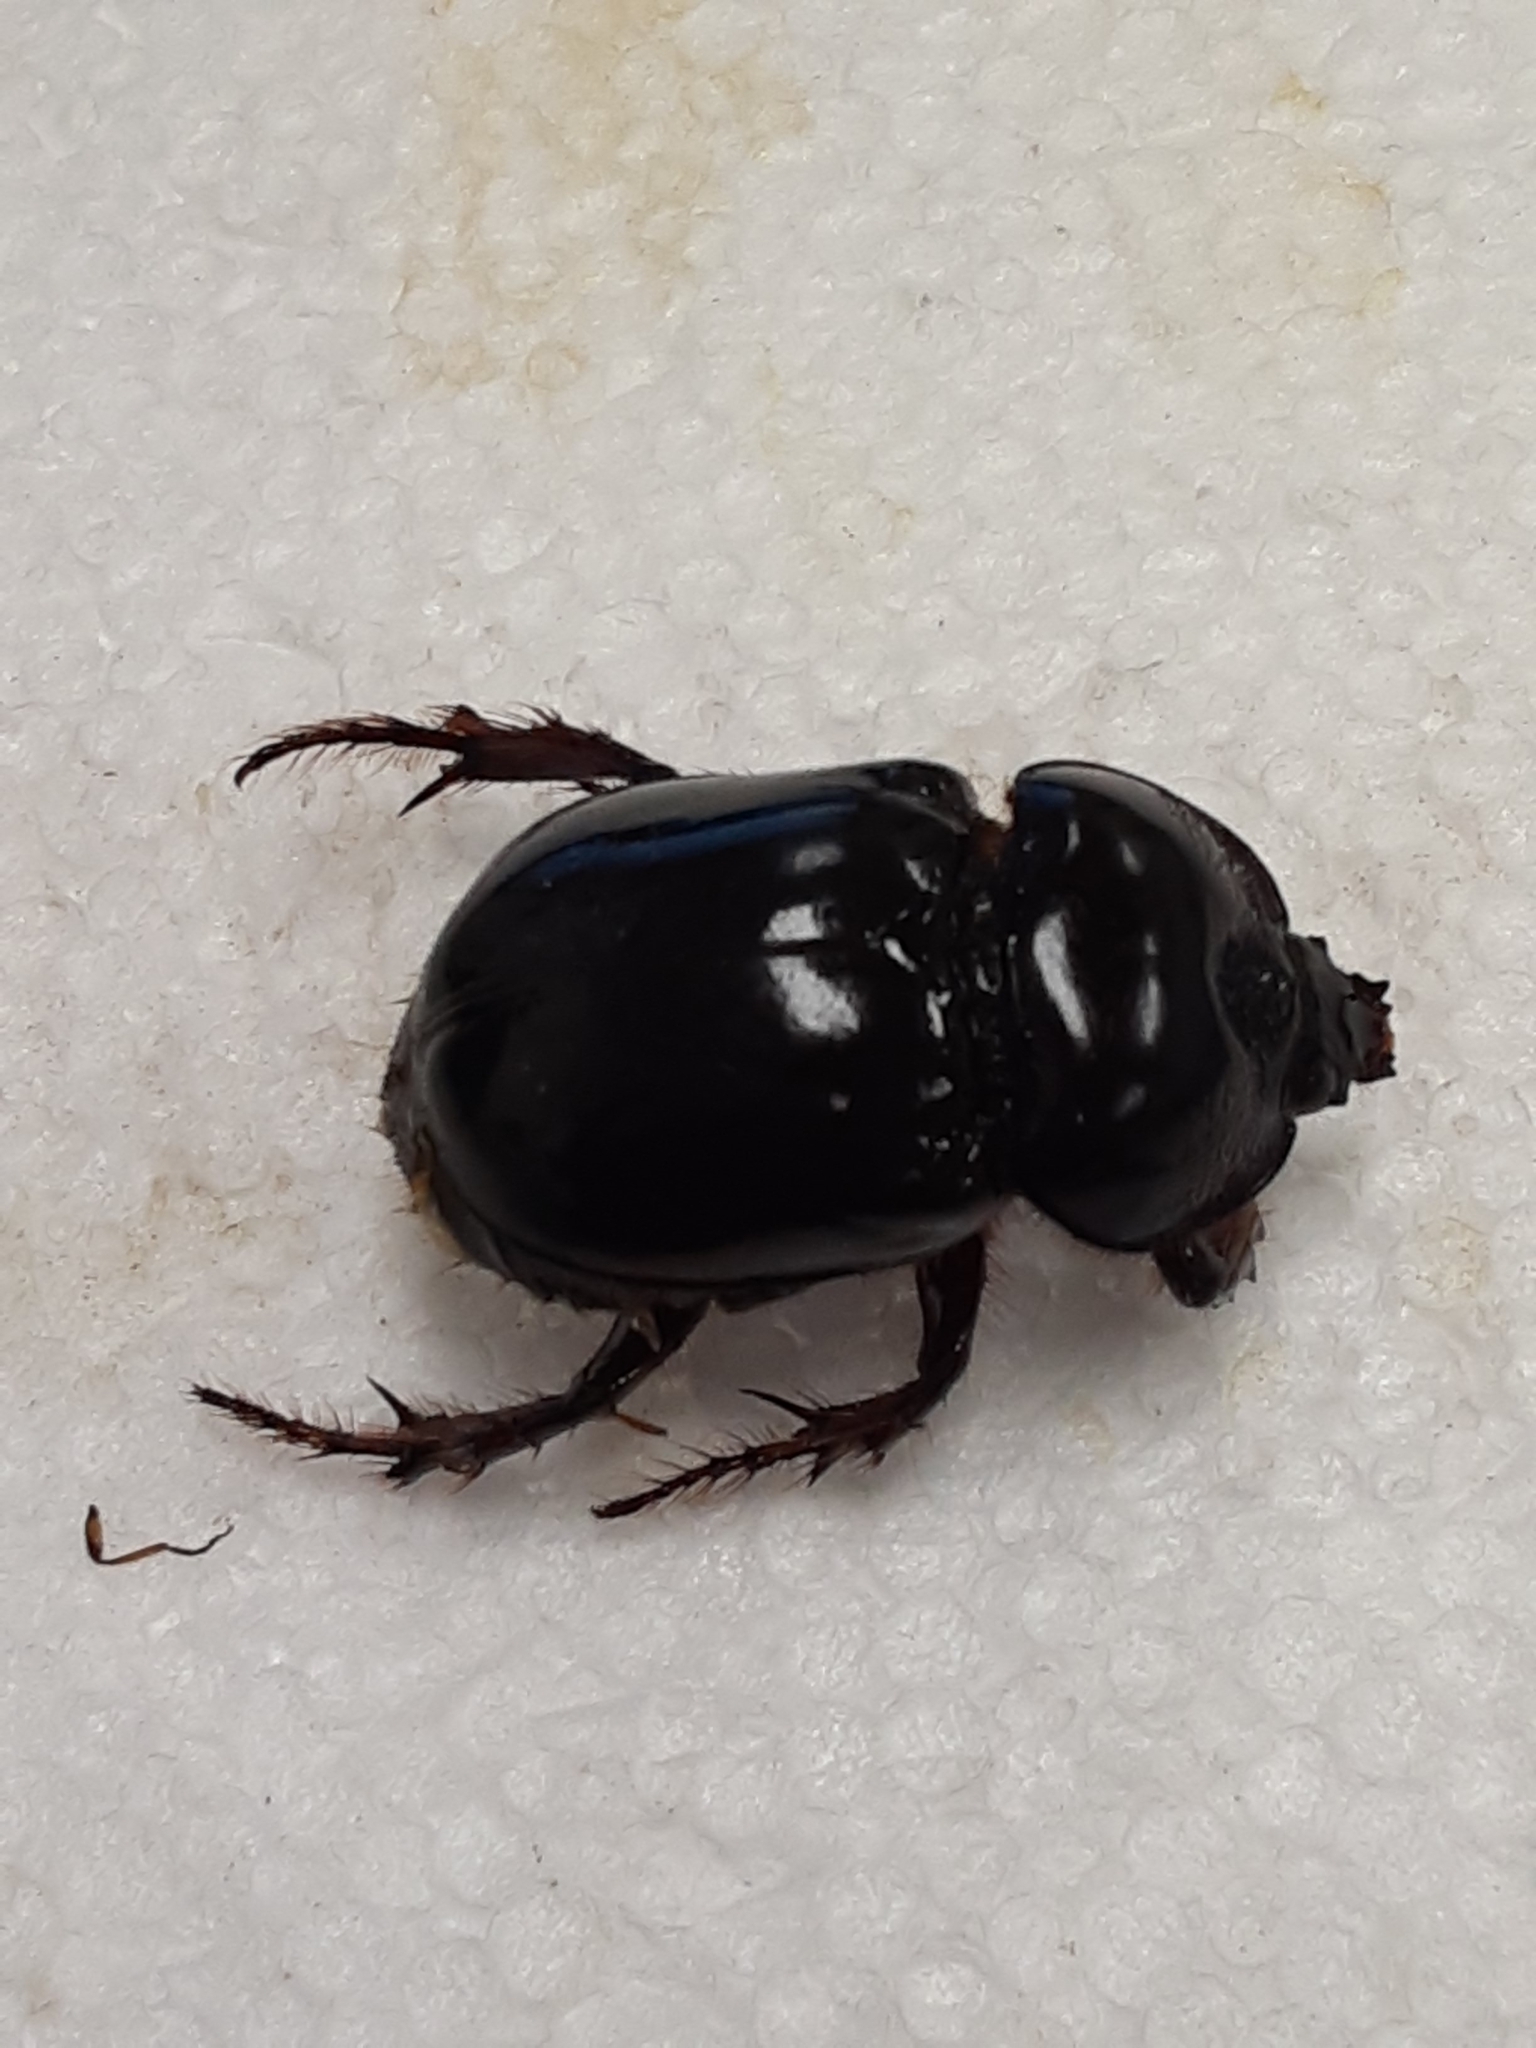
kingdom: Animalia
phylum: Arthropoda
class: Insecta
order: Coleoptera
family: Scarabaeidae
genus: Strategus
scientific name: Strategus antaeus
